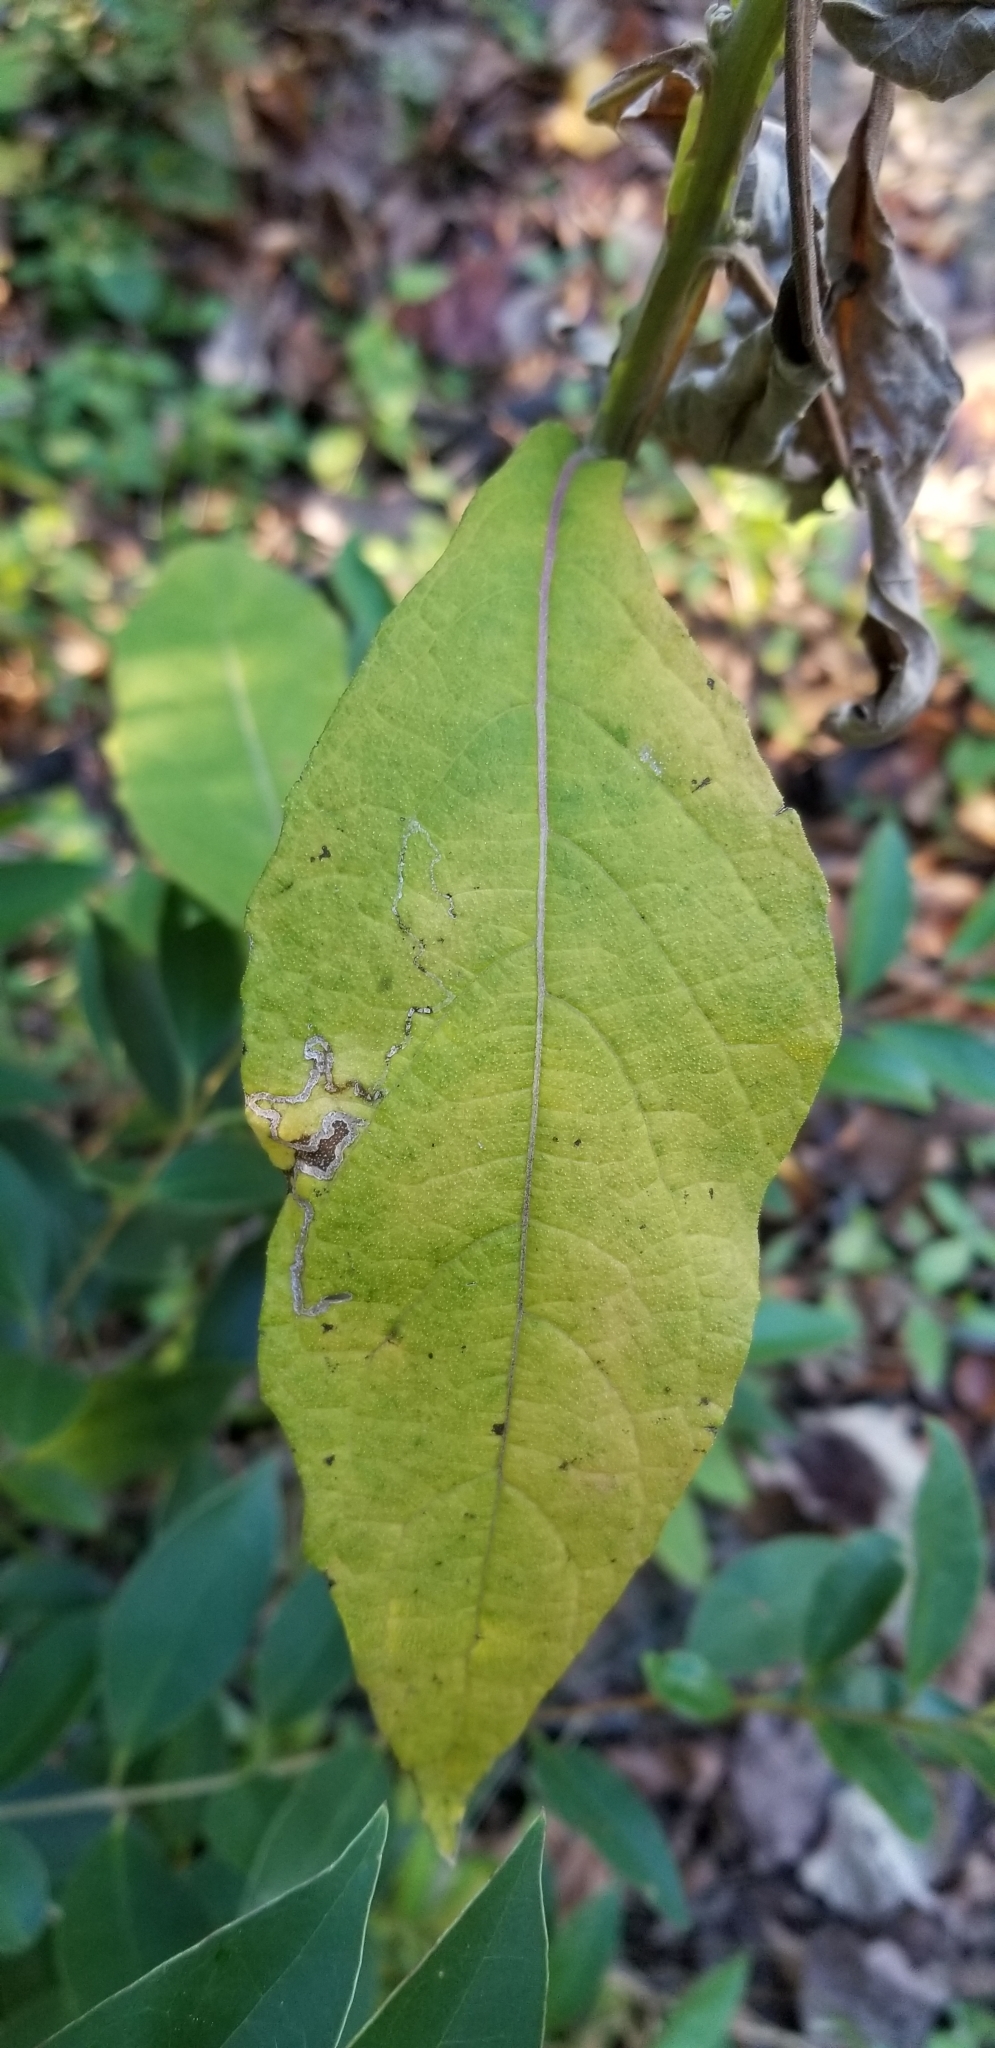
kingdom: Plantae
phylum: Tracheophyta
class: Magnoliopsida
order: Asterales
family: Asteraceae
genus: Verbesina
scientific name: Verbesina virginica
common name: Frostweed
